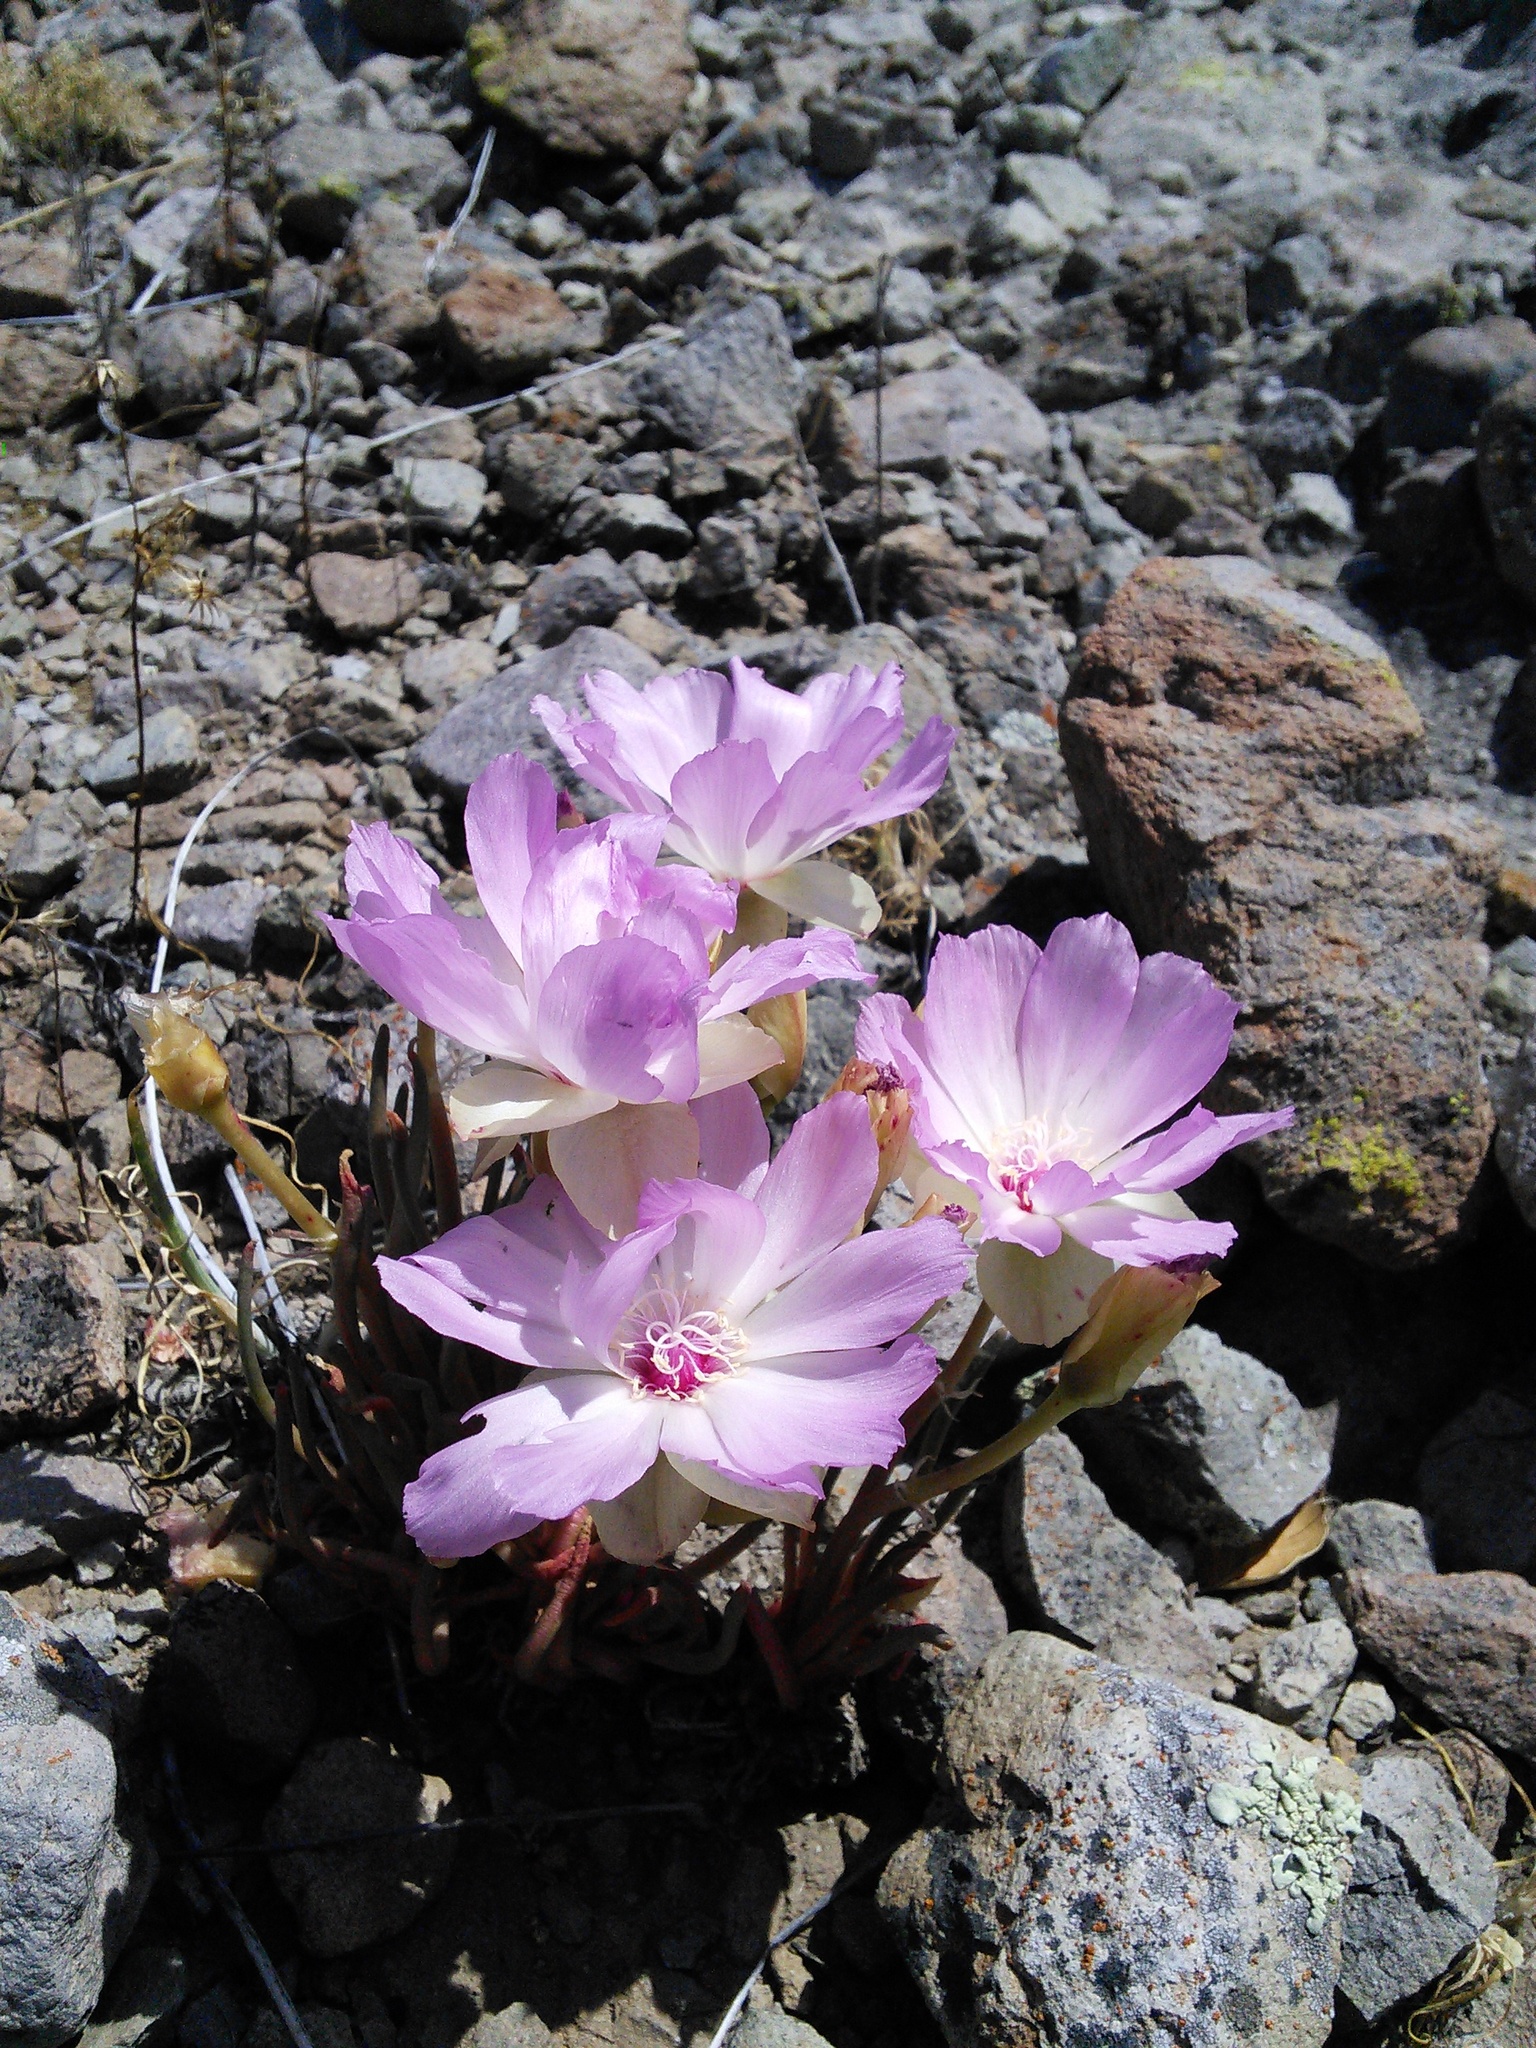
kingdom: Plantae
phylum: Tracheophyta
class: Magnoliopsida
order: Caryophyllales
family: Montiaceae
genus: Lewisia
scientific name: Lewisia rediviva
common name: Bitter-root
